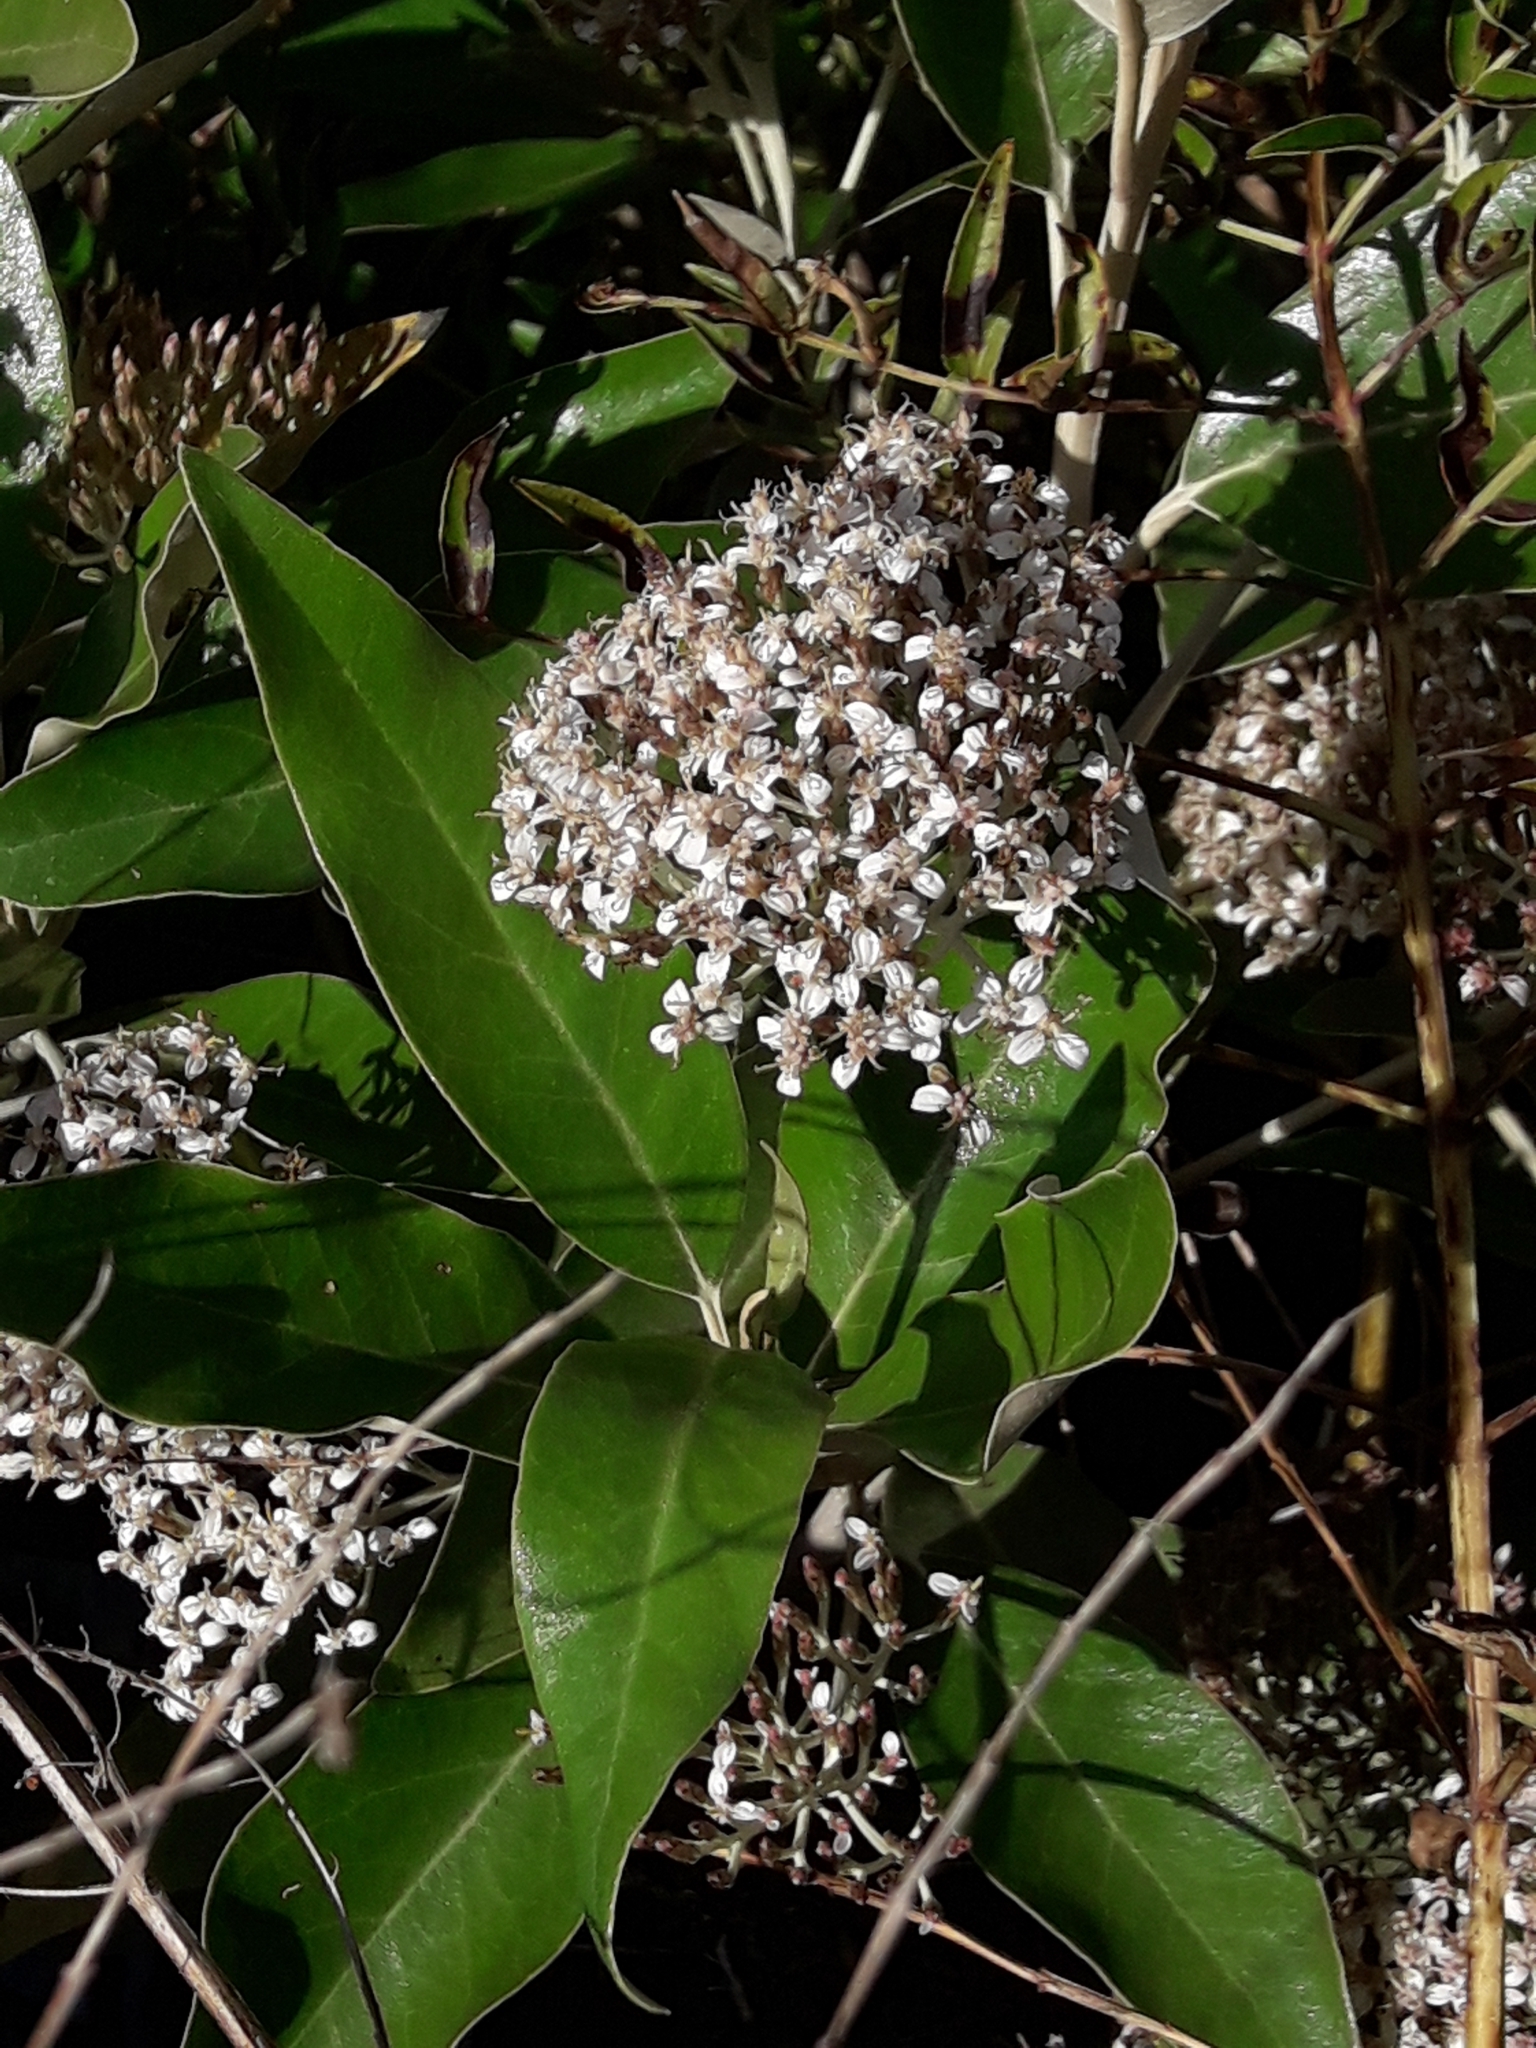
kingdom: Plantae
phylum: Tracheophyta
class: Magnoliopsida
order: Asterales
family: Asteraceae
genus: Olearia
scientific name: Olearia avicenniifolia
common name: Mangrove-leaf daisybush
